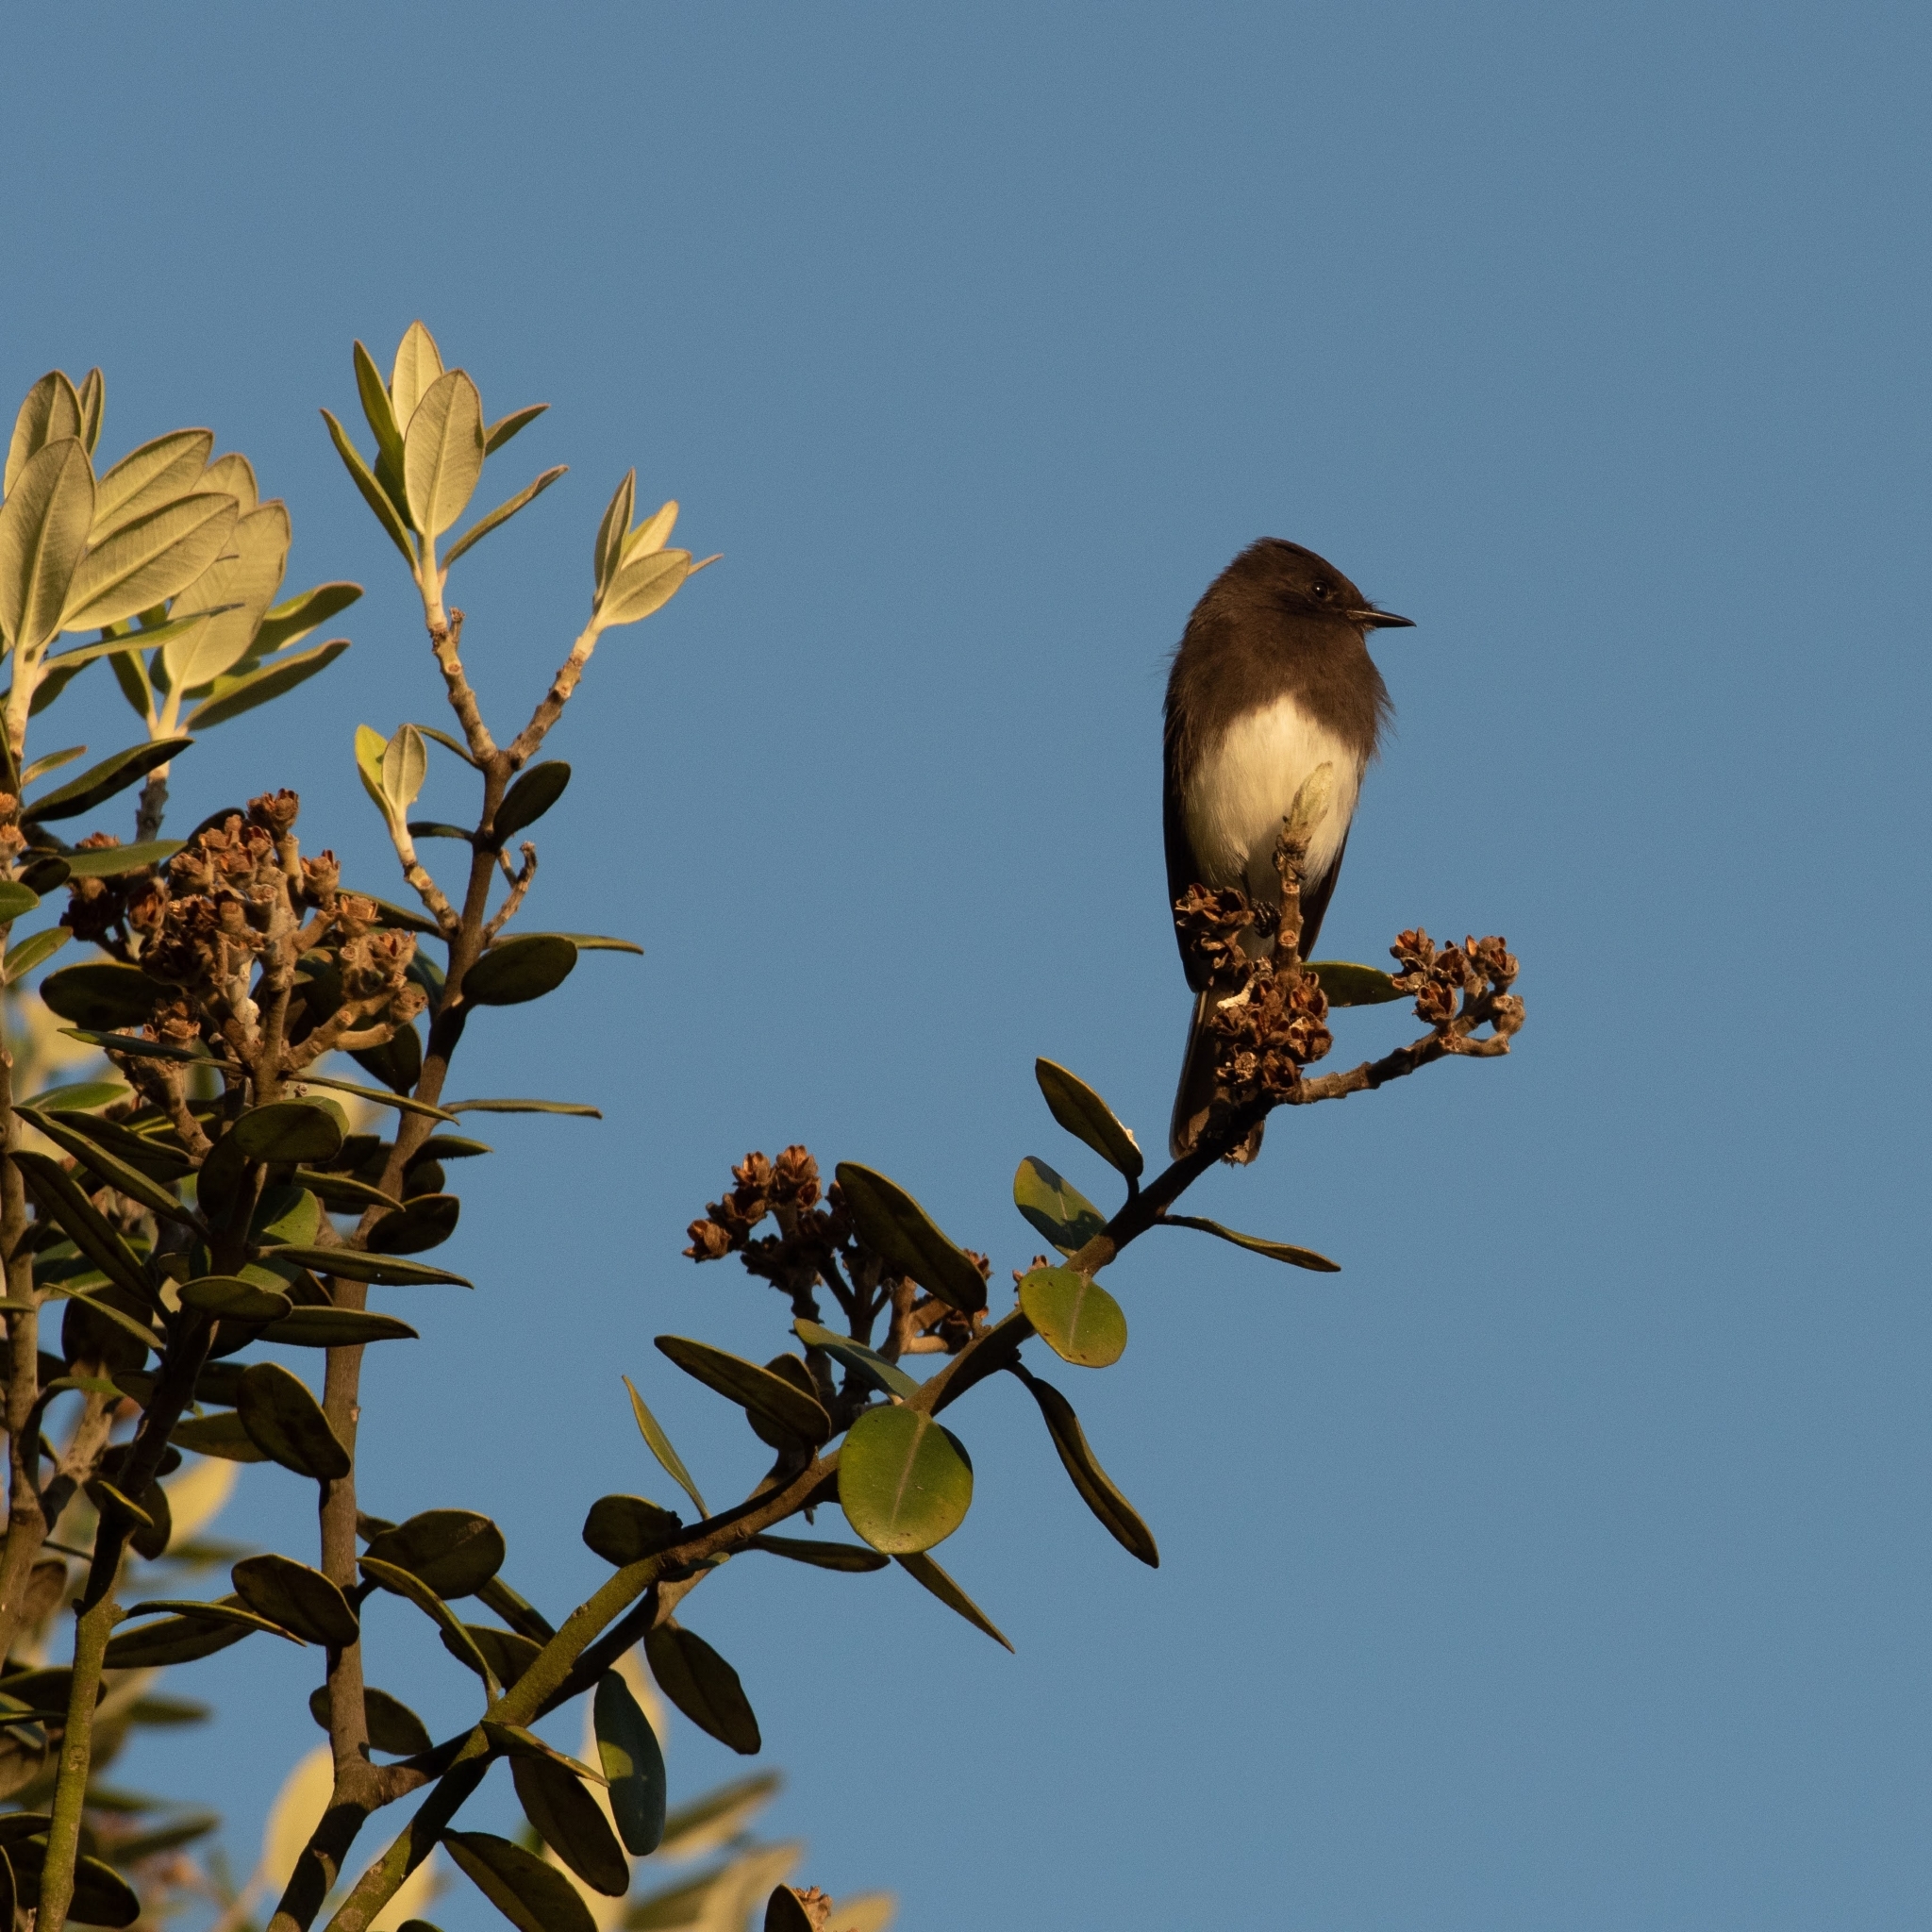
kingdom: Animalia
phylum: Chordata
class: Aves
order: Passeriformes
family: Tyrannidae
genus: Sayornis
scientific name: Sayornis nigricans
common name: Black phoebe
